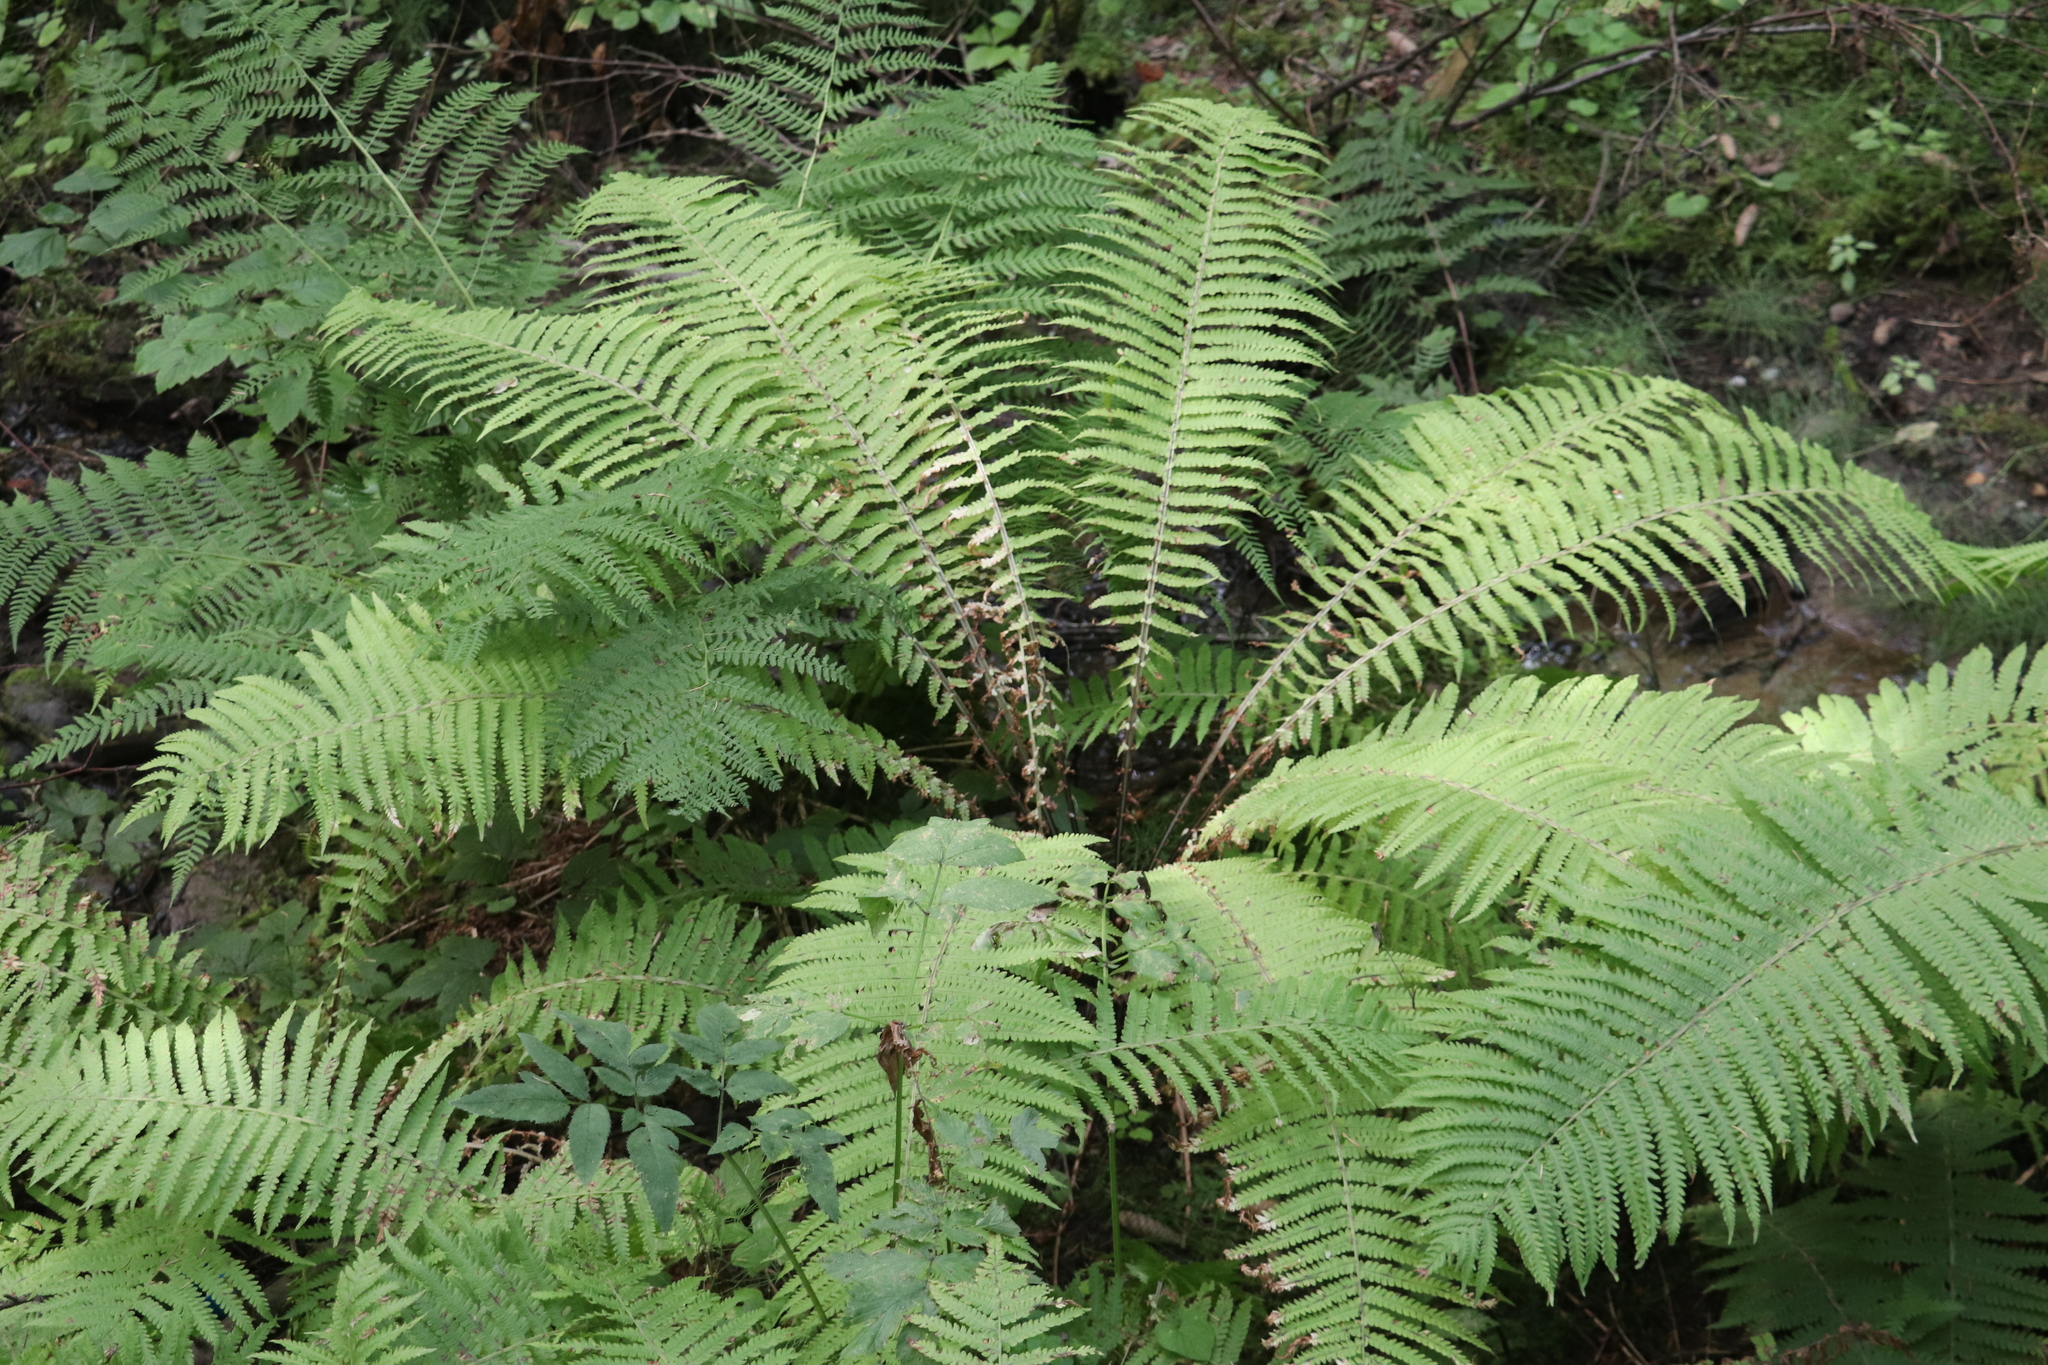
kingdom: Plantae
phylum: Tracheophyta
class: Polypodiopsida
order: Polypodiales
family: Onocleaceae
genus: Matteuccia
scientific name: Matteuccia struthiopteris
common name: Ostrich fern
